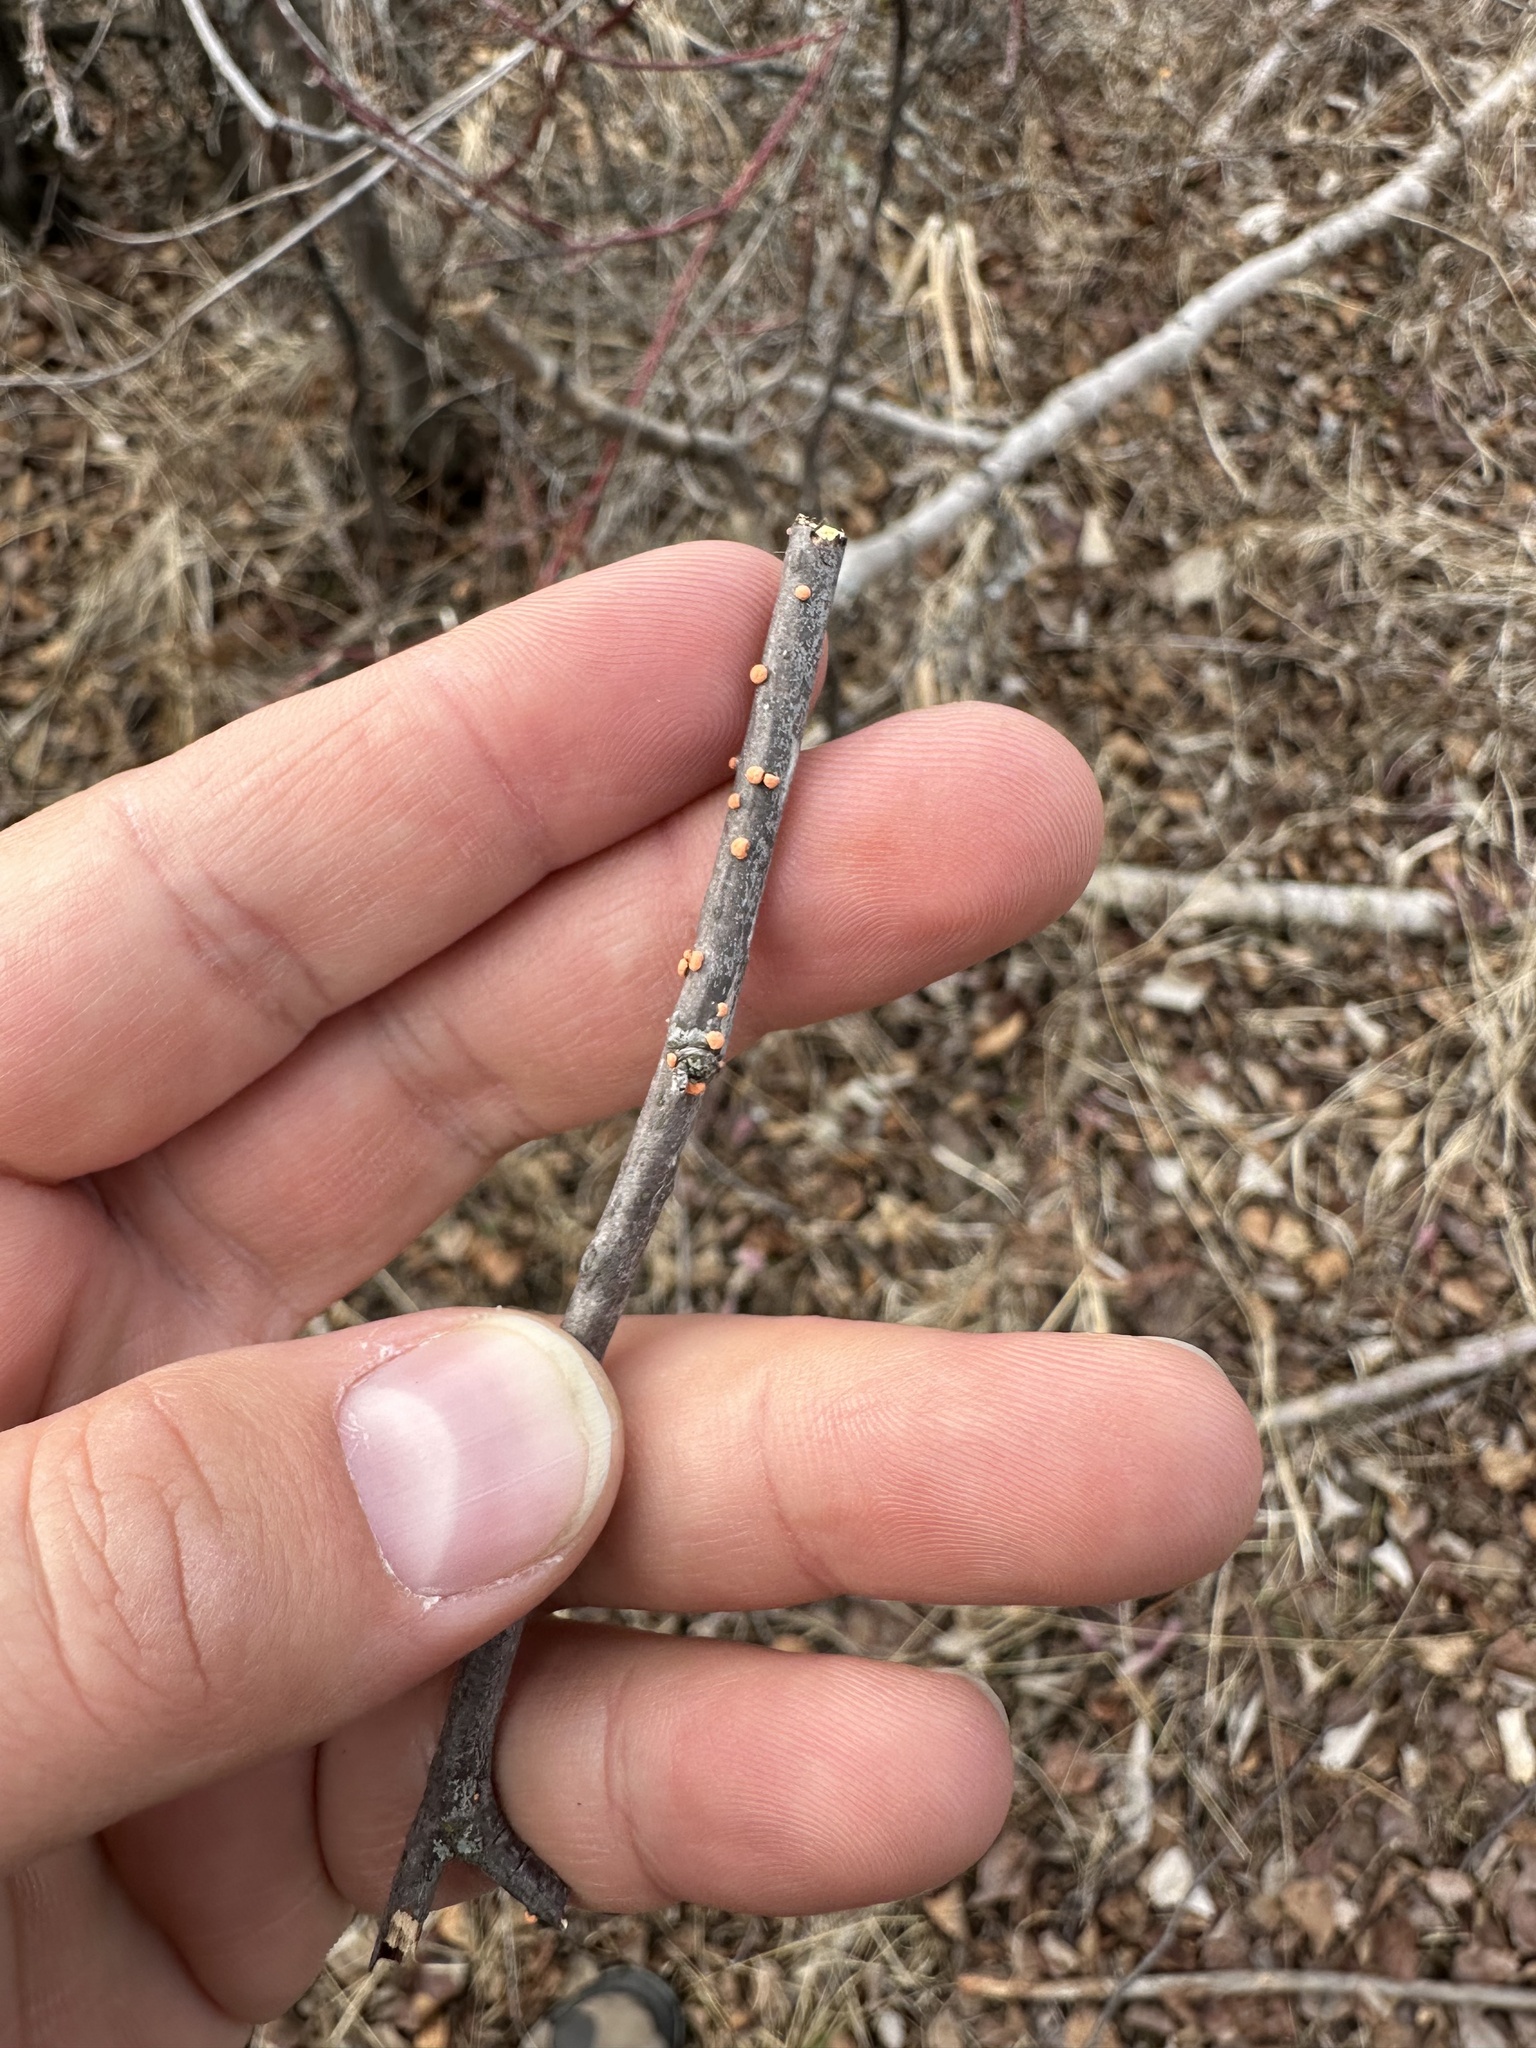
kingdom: Fungi
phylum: Ascomycota
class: Sordariomycetes
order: Hypocreales
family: Nectriaceae
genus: Nectria
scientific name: Nectria cinnabarina
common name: Coral spot
